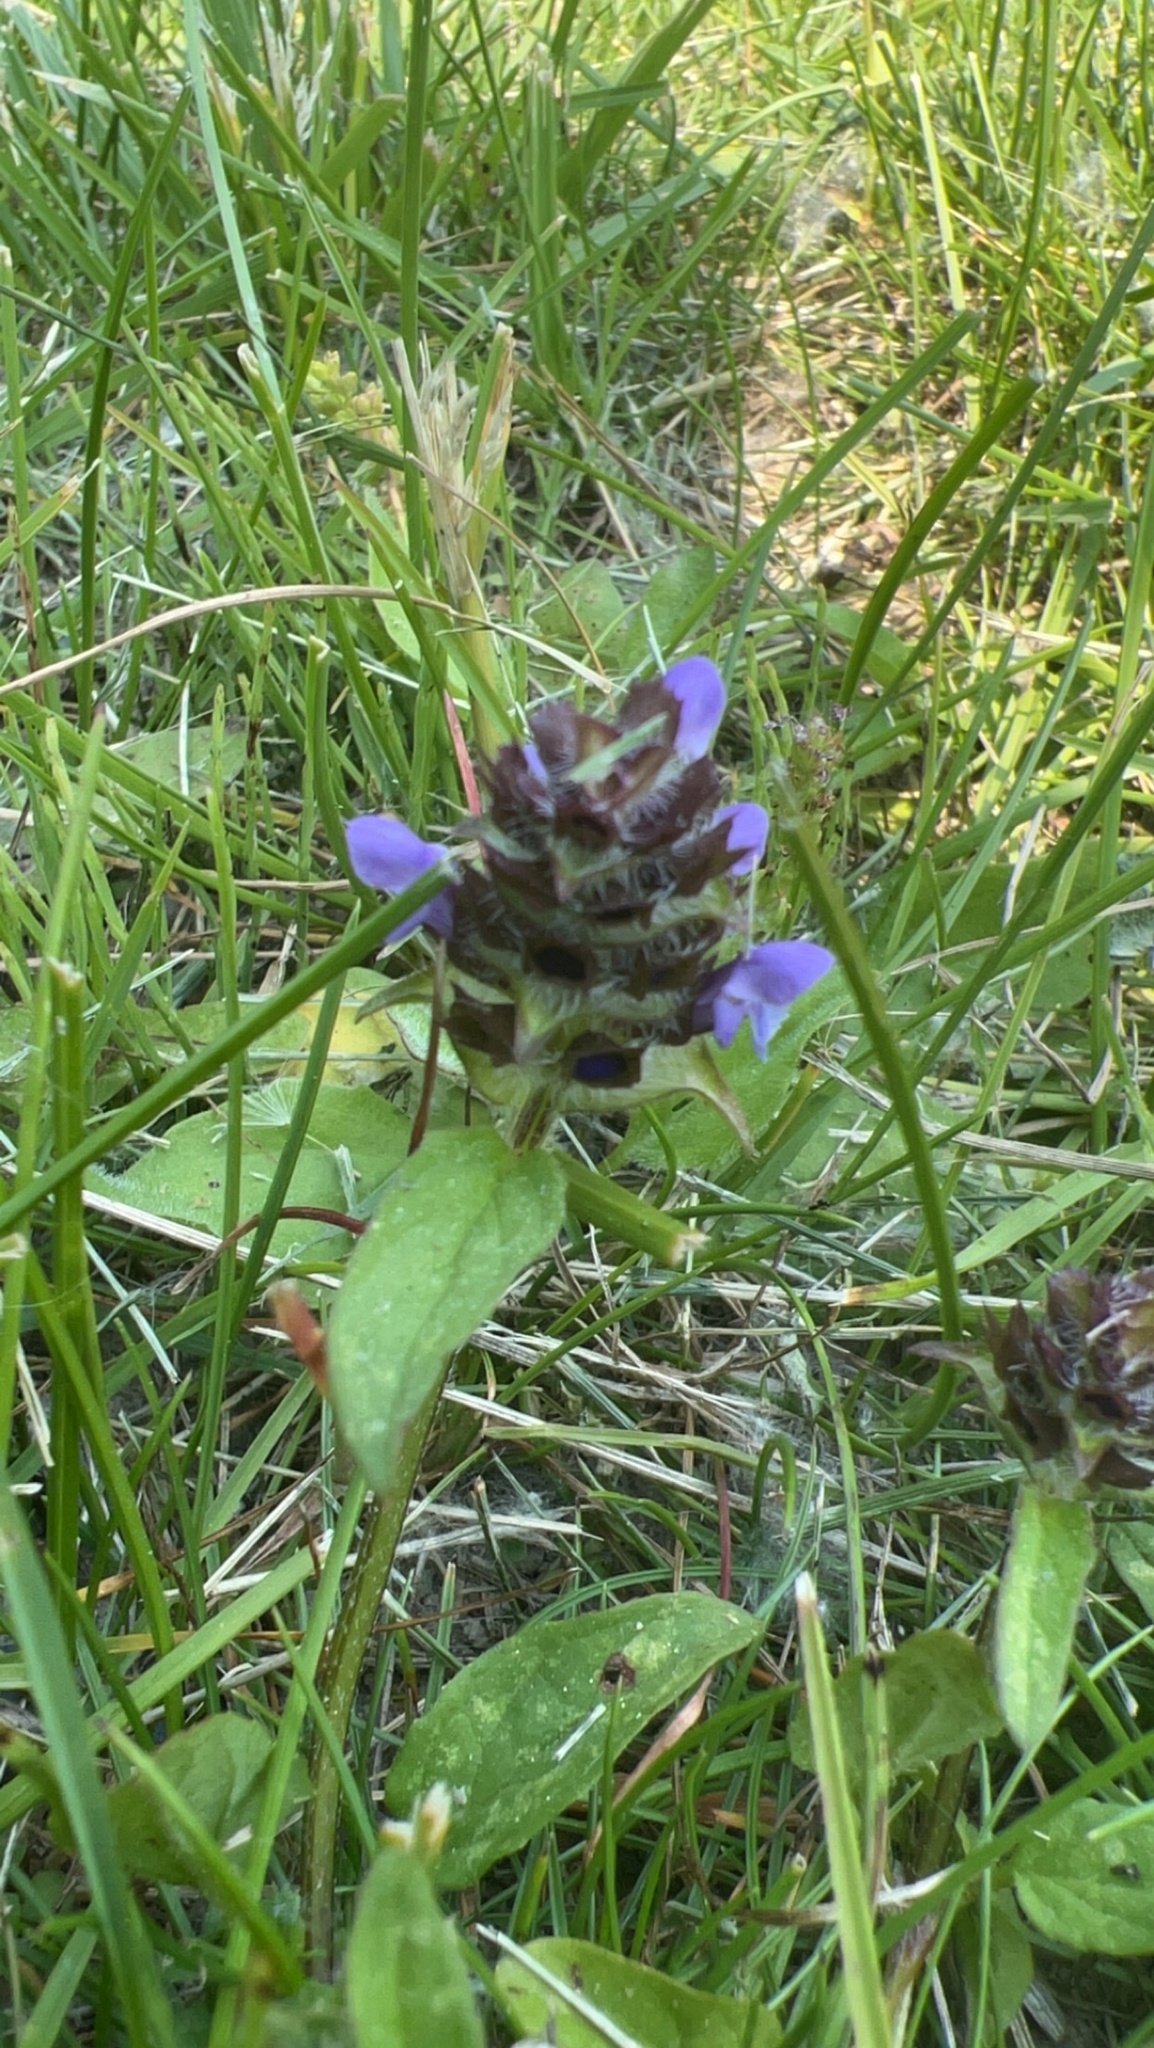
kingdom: Plantae
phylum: Tracheophyta
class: Magnoliopsida
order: Lamiales
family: Lamiaceae
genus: Prunella
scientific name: Prunella vulgaris
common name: Heal-all
